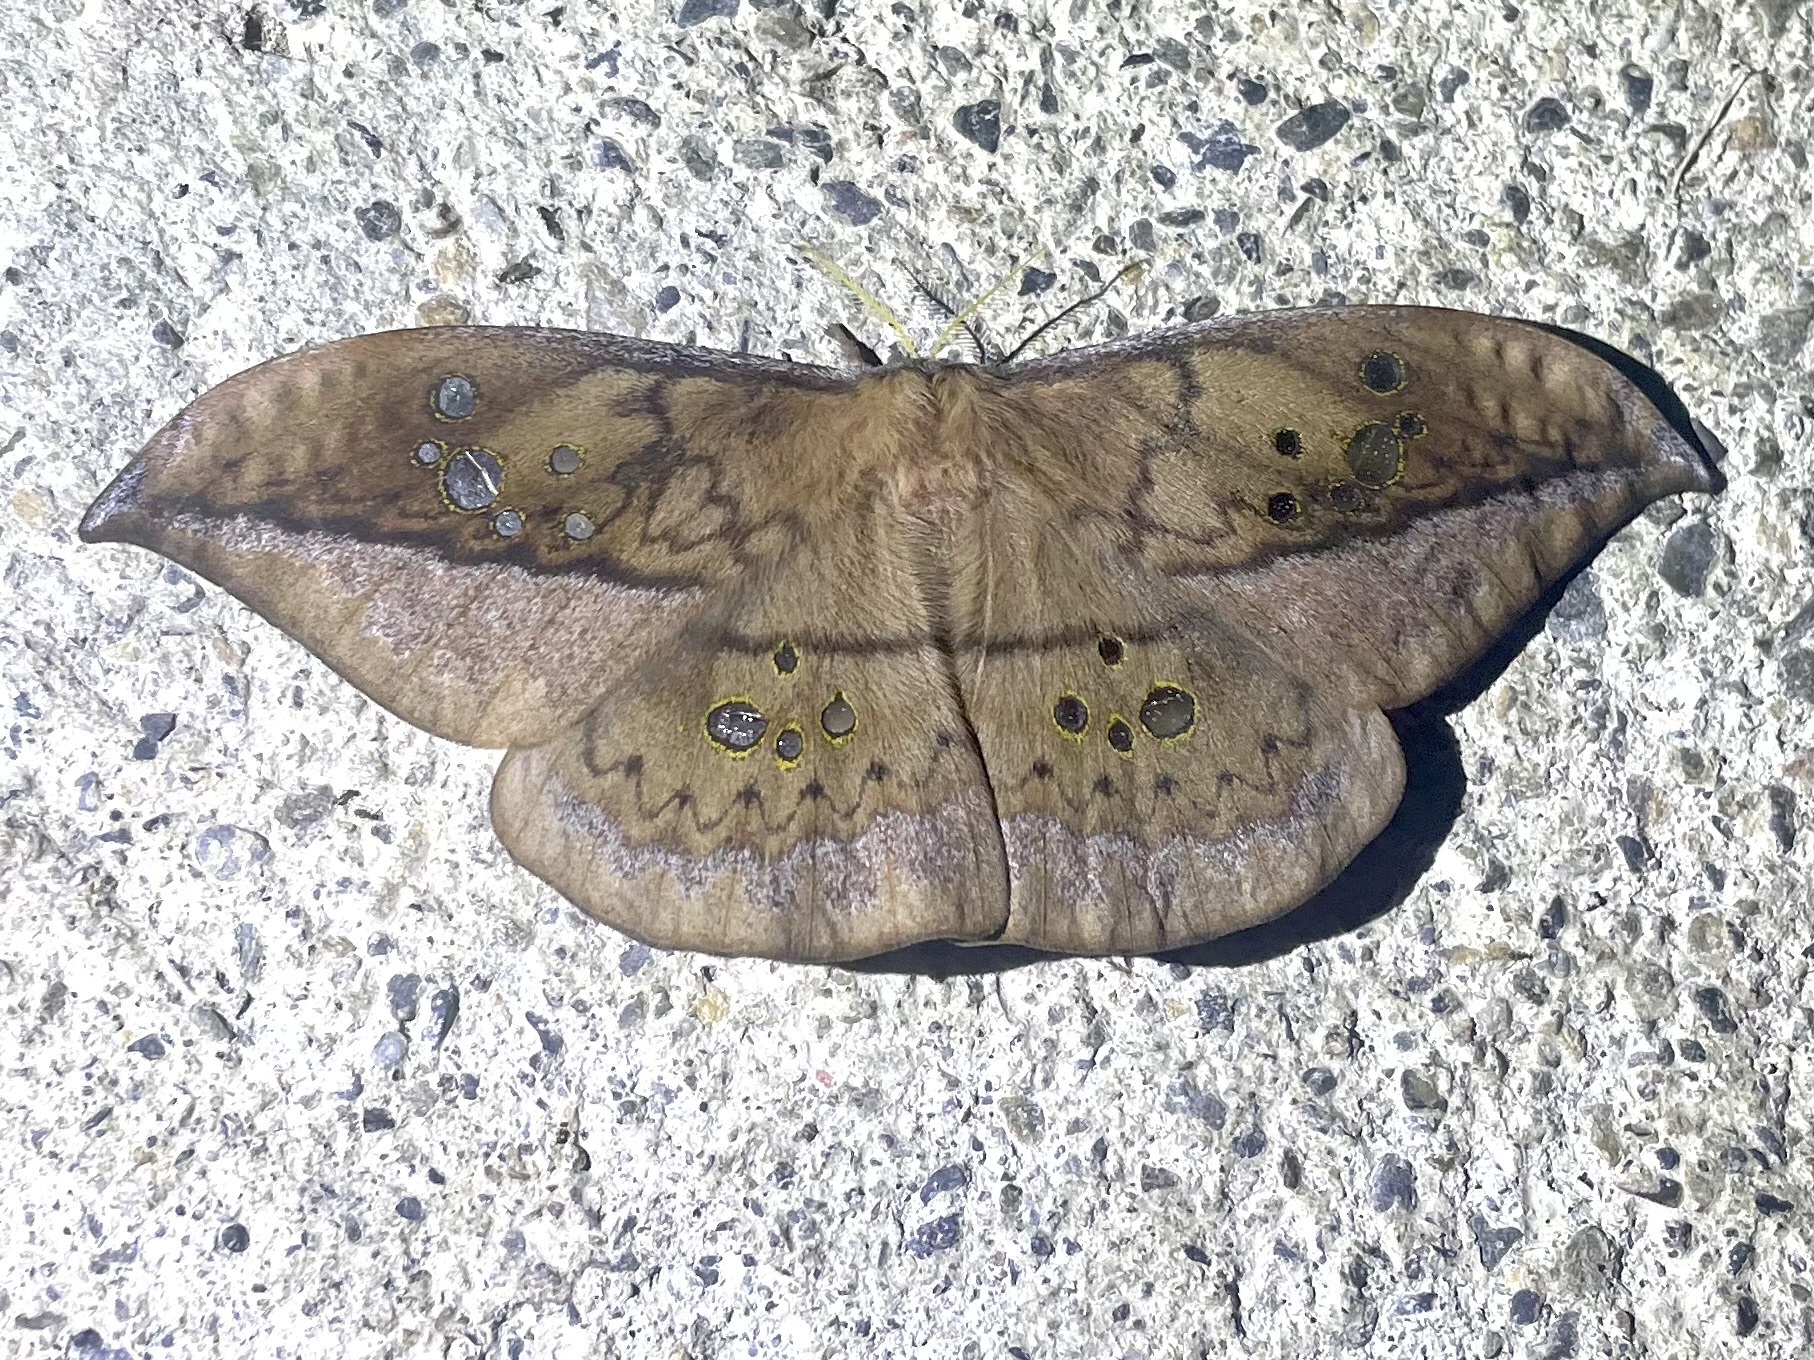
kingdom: Animalia
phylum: Arthropoda
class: Insecta
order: Lepidoptera
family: Saturniidae
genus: Copaxa
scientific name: Copaxa denhezi
